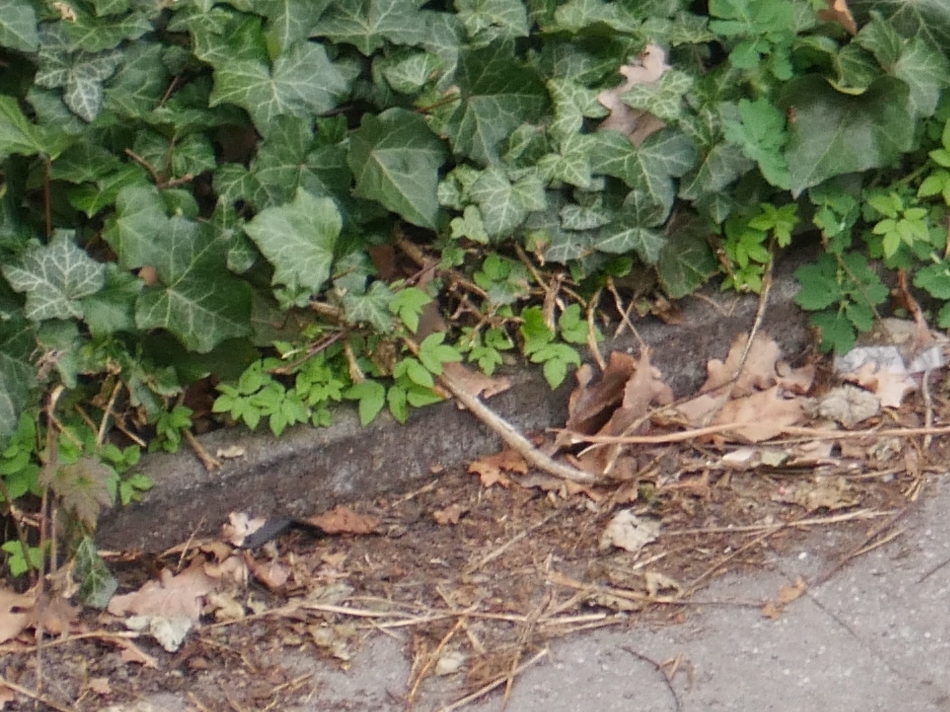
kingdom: Plantae
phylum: Tracheophyta
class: Magnoliopsida
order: Apiales
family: Apiaceae
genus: Aegopodium
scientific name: Aegopodium podagraria
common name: Ground-elder
